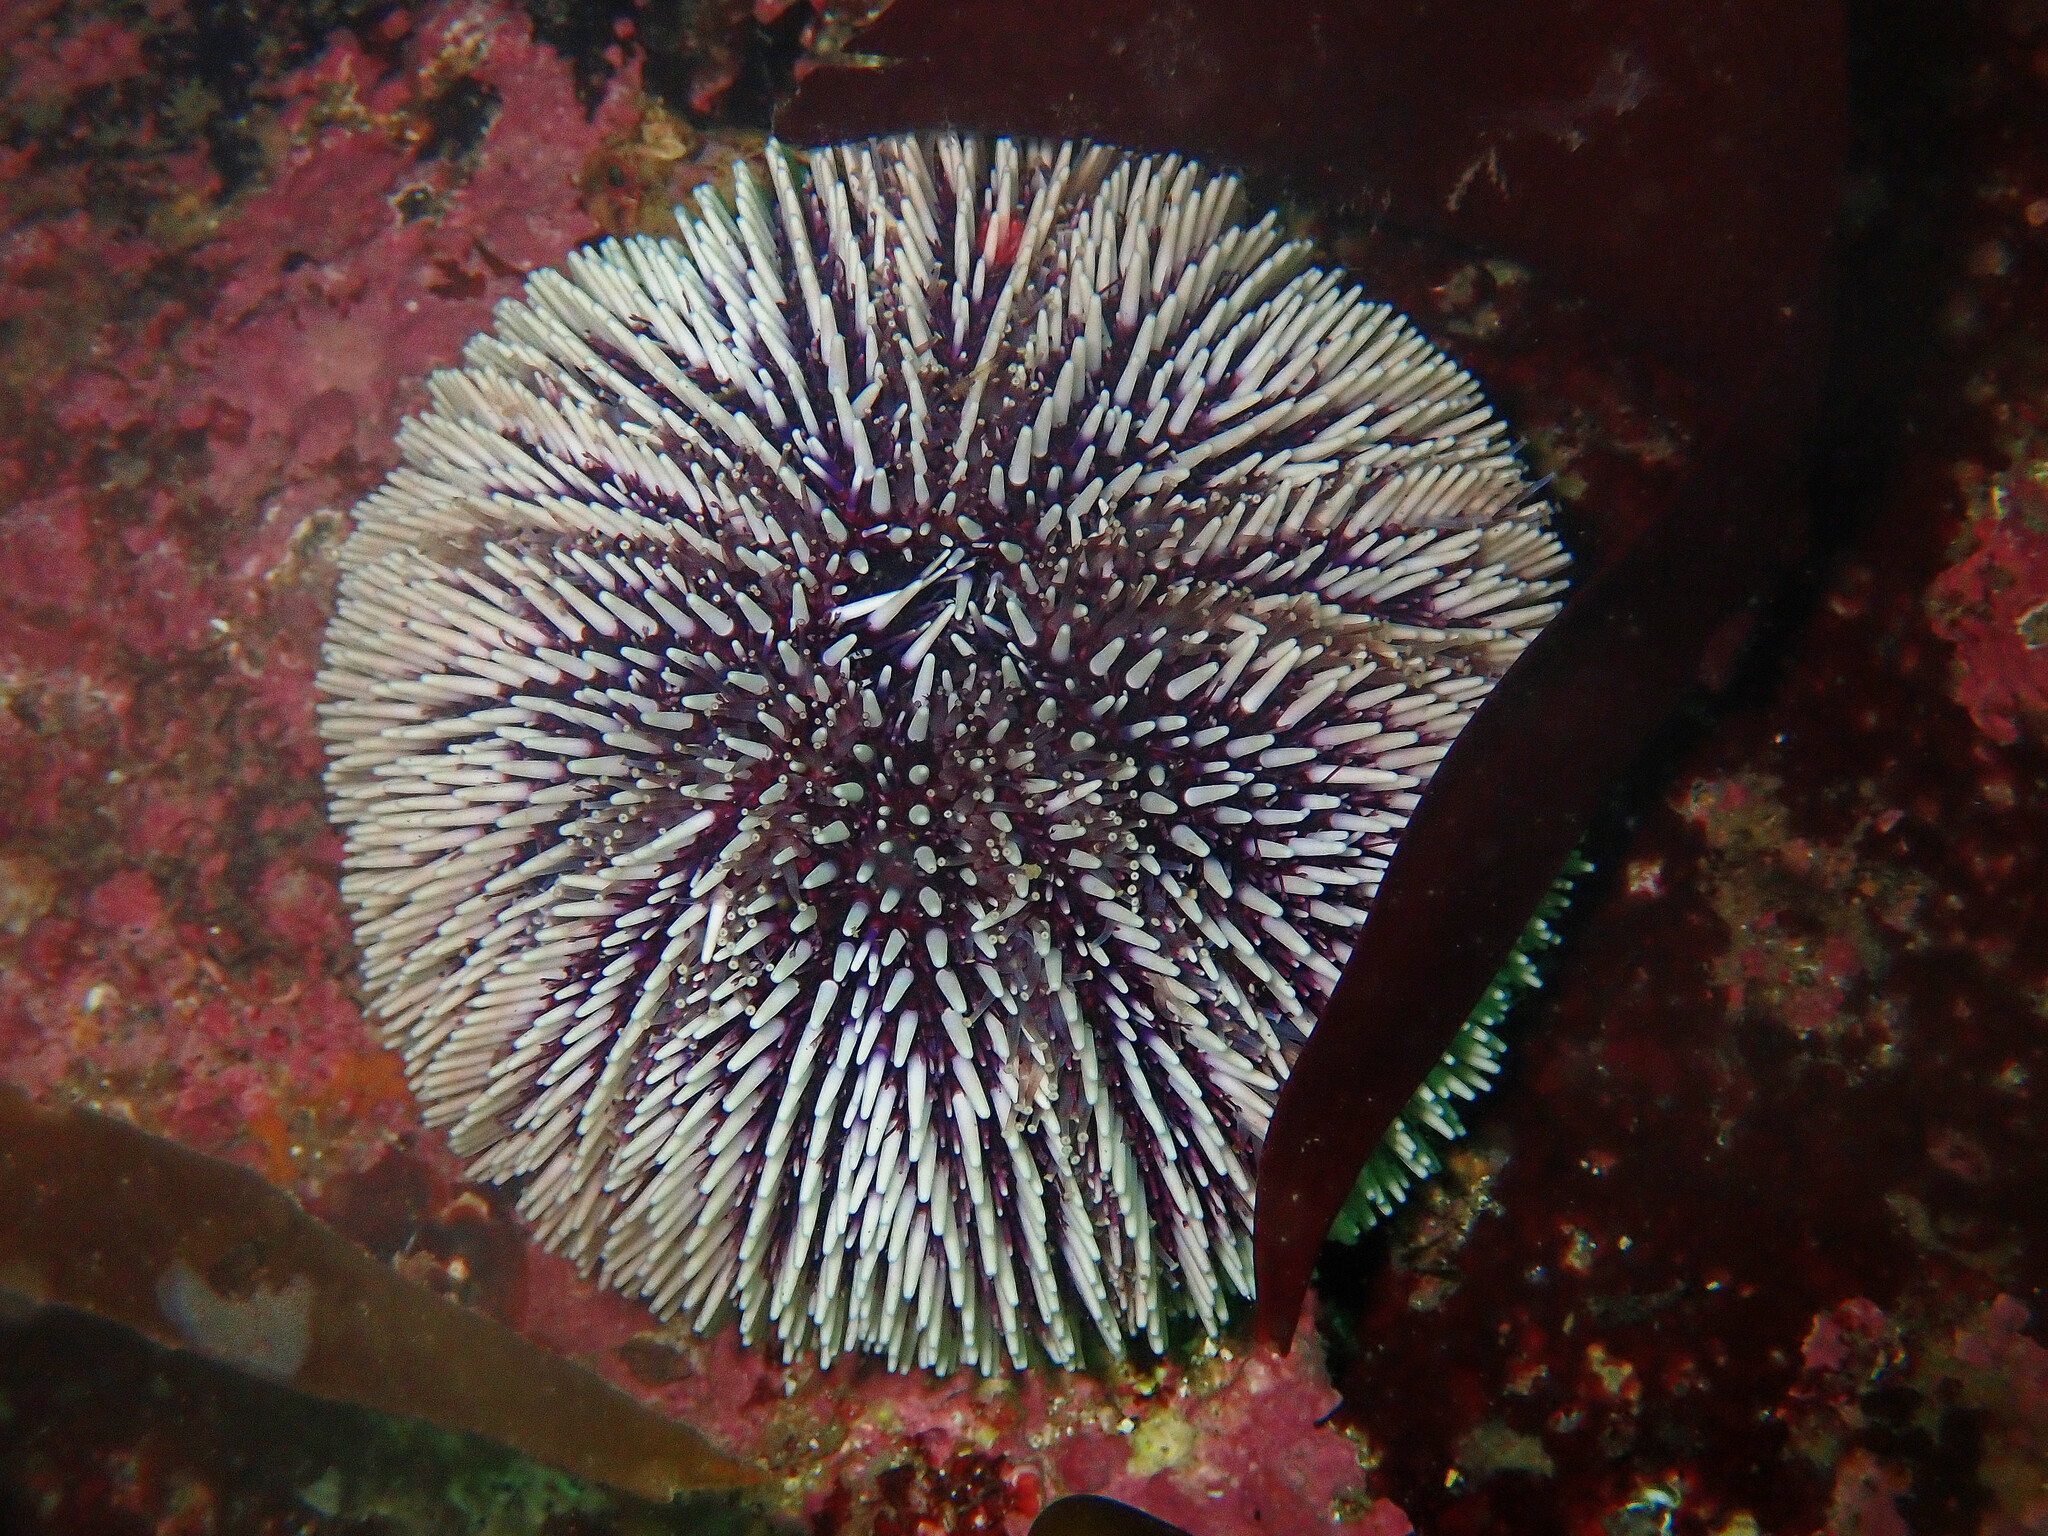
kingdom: Animalia
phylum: Echinodermata
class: Echinoidea
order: Camarodonta
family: Toxopneustidae
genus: Sphaerechinus
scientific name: Sphaerechinus granularis
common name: Violet sea urchin
